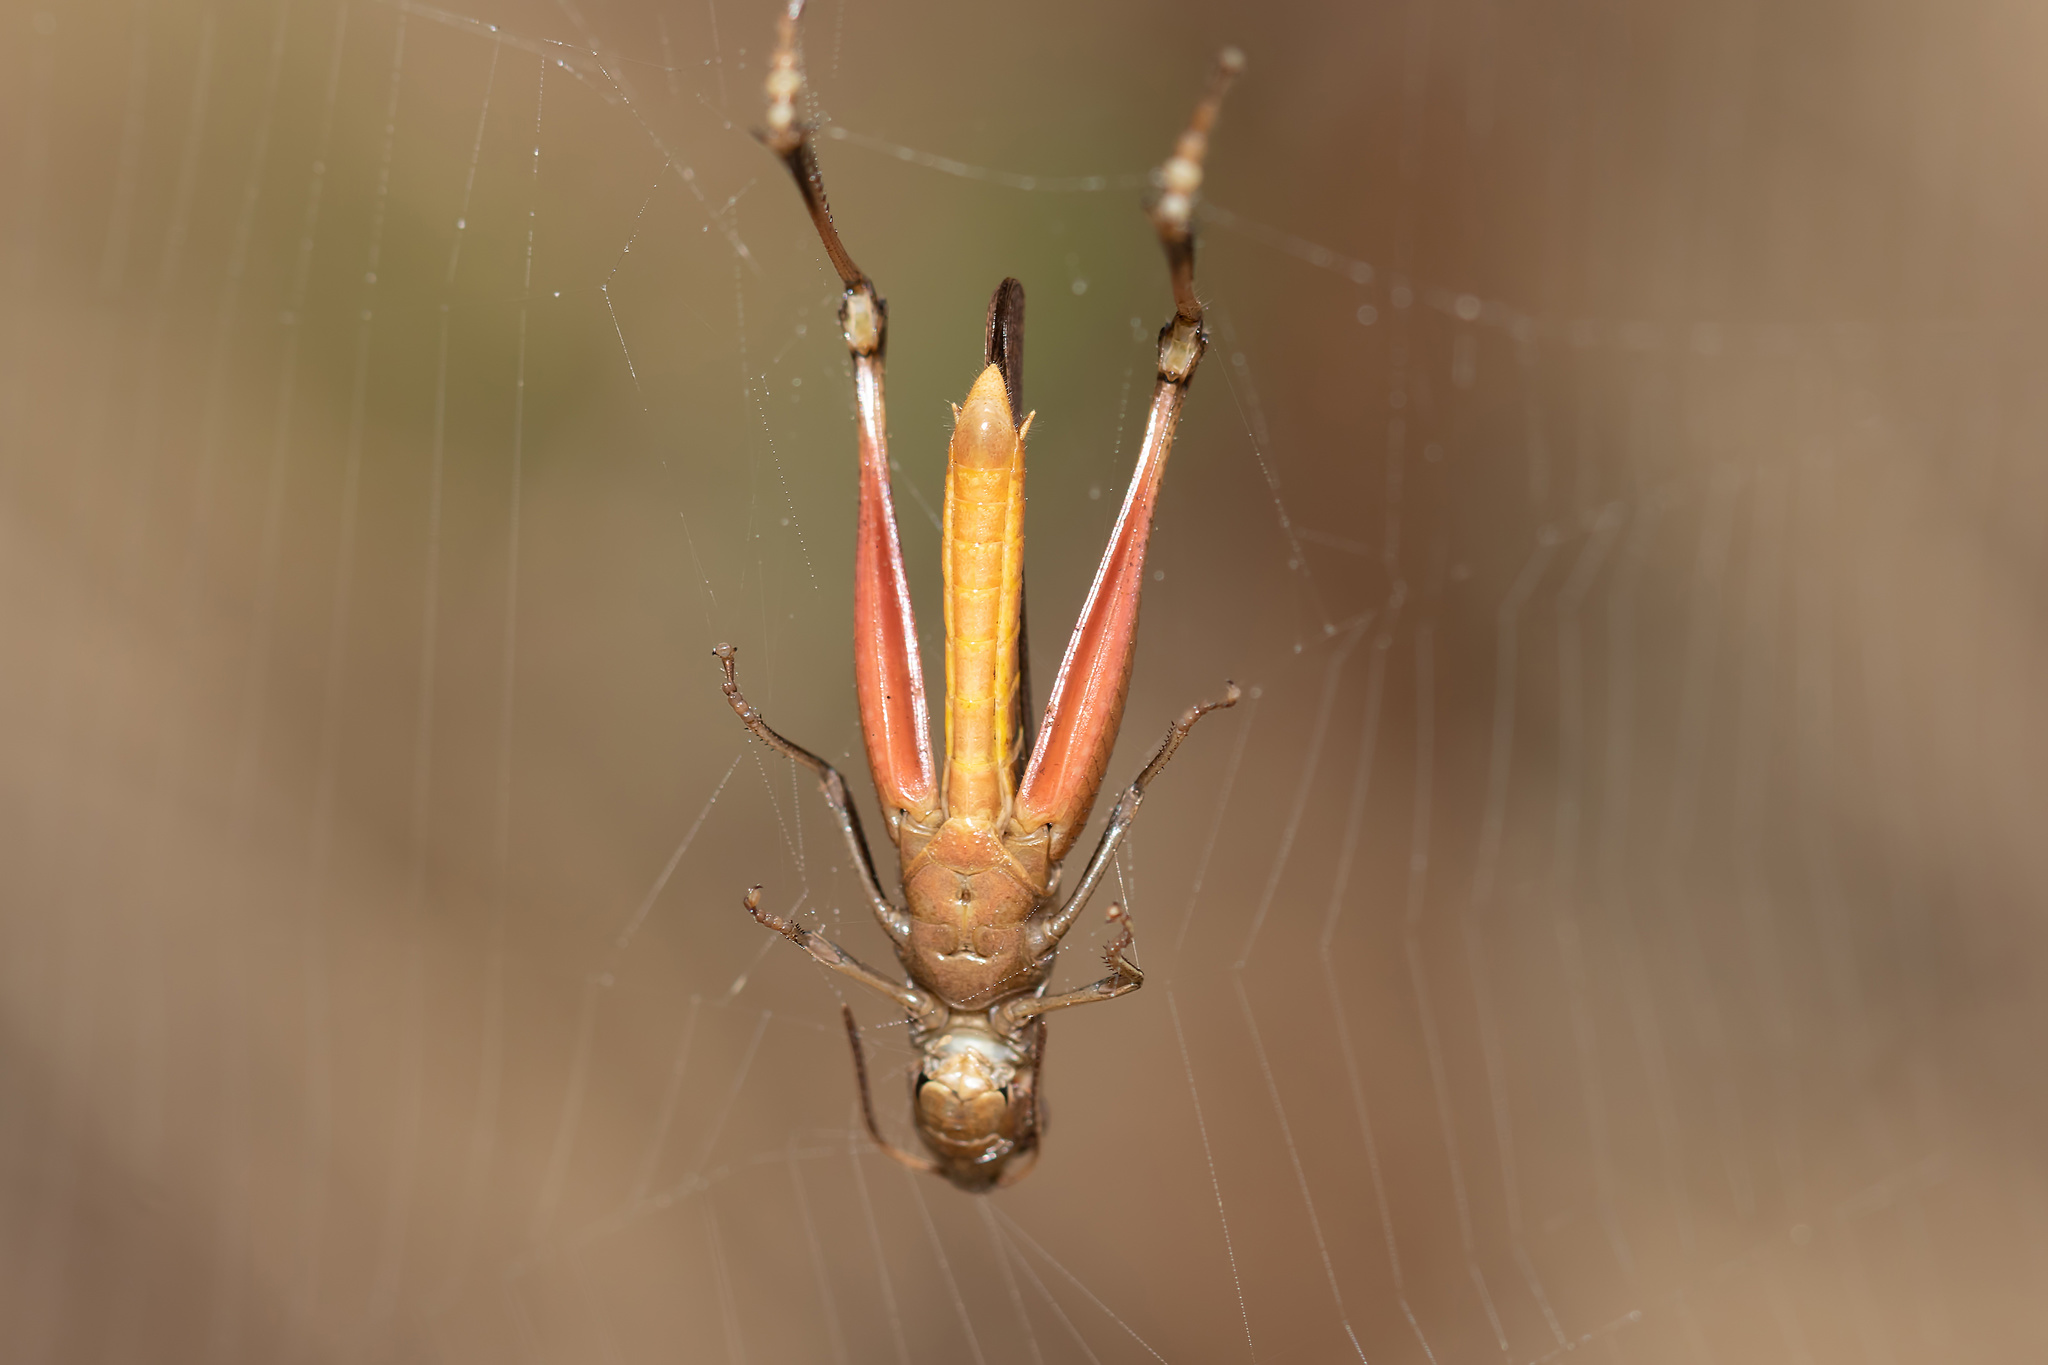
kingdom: Animalia
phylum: Arthropoda
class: Insecta
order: Orthoptera
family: Acrididae
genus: Amblytropidia
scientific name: Amblytropidia mysteca
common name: Brown winter grasshopper
